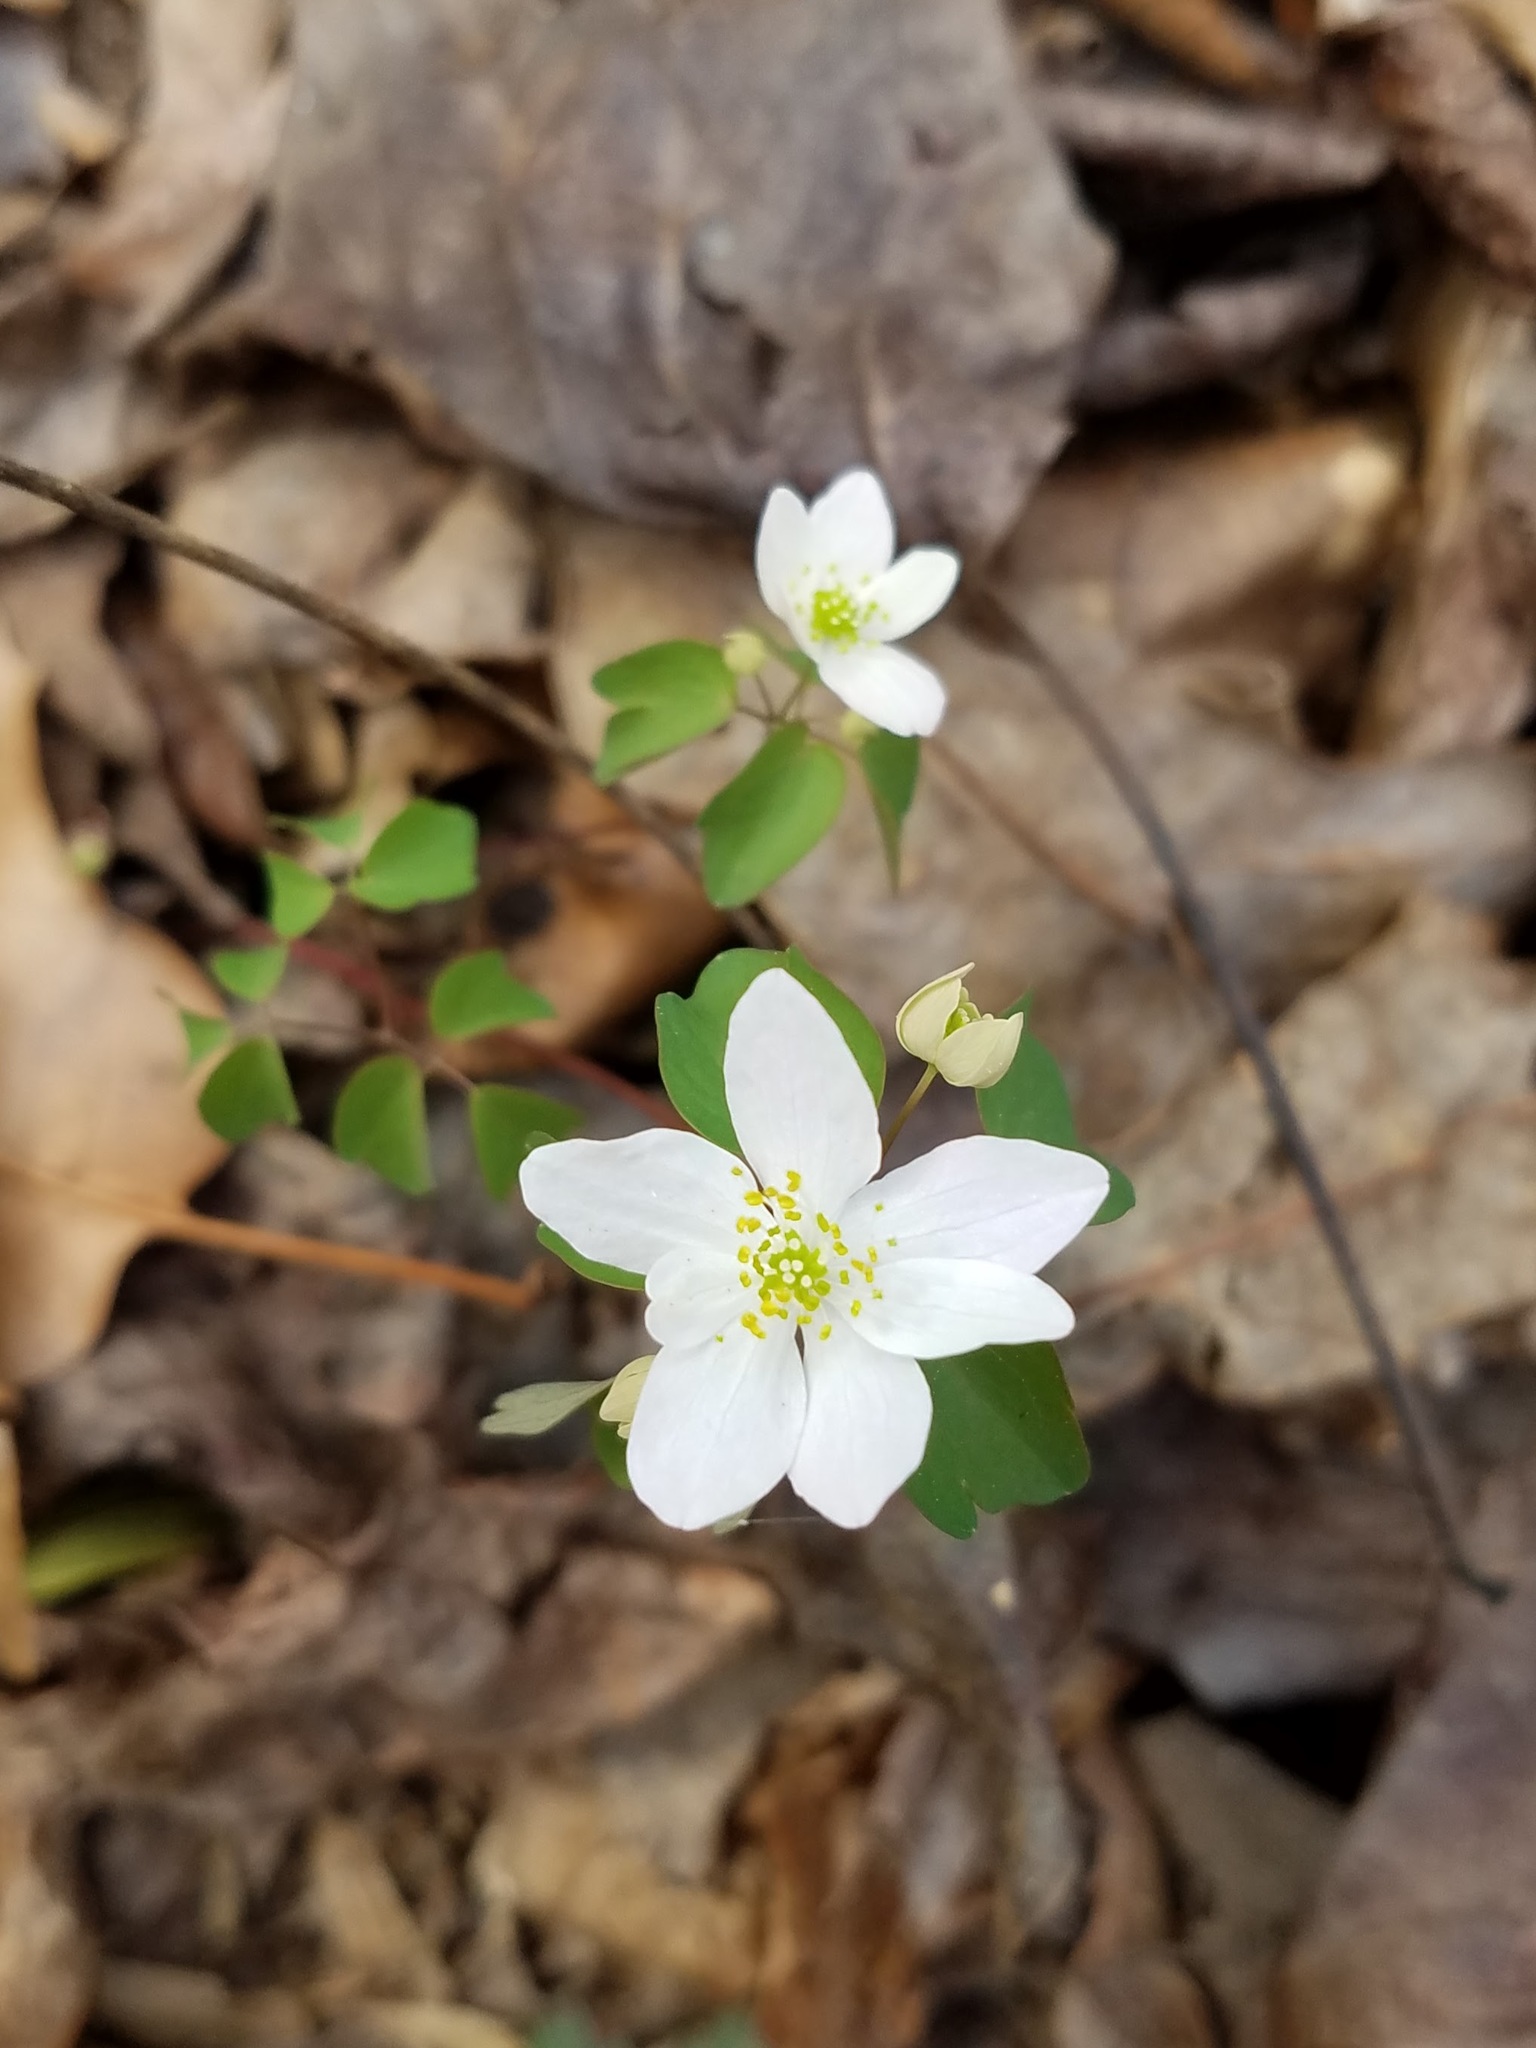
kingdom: Plantae
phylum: Tracheophyta
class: Magnoliopsida
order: Ranunculales
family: Ranunculaceae
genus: Thalictrum
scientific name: Thalictrum thalictroides
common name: Rue-anemone
